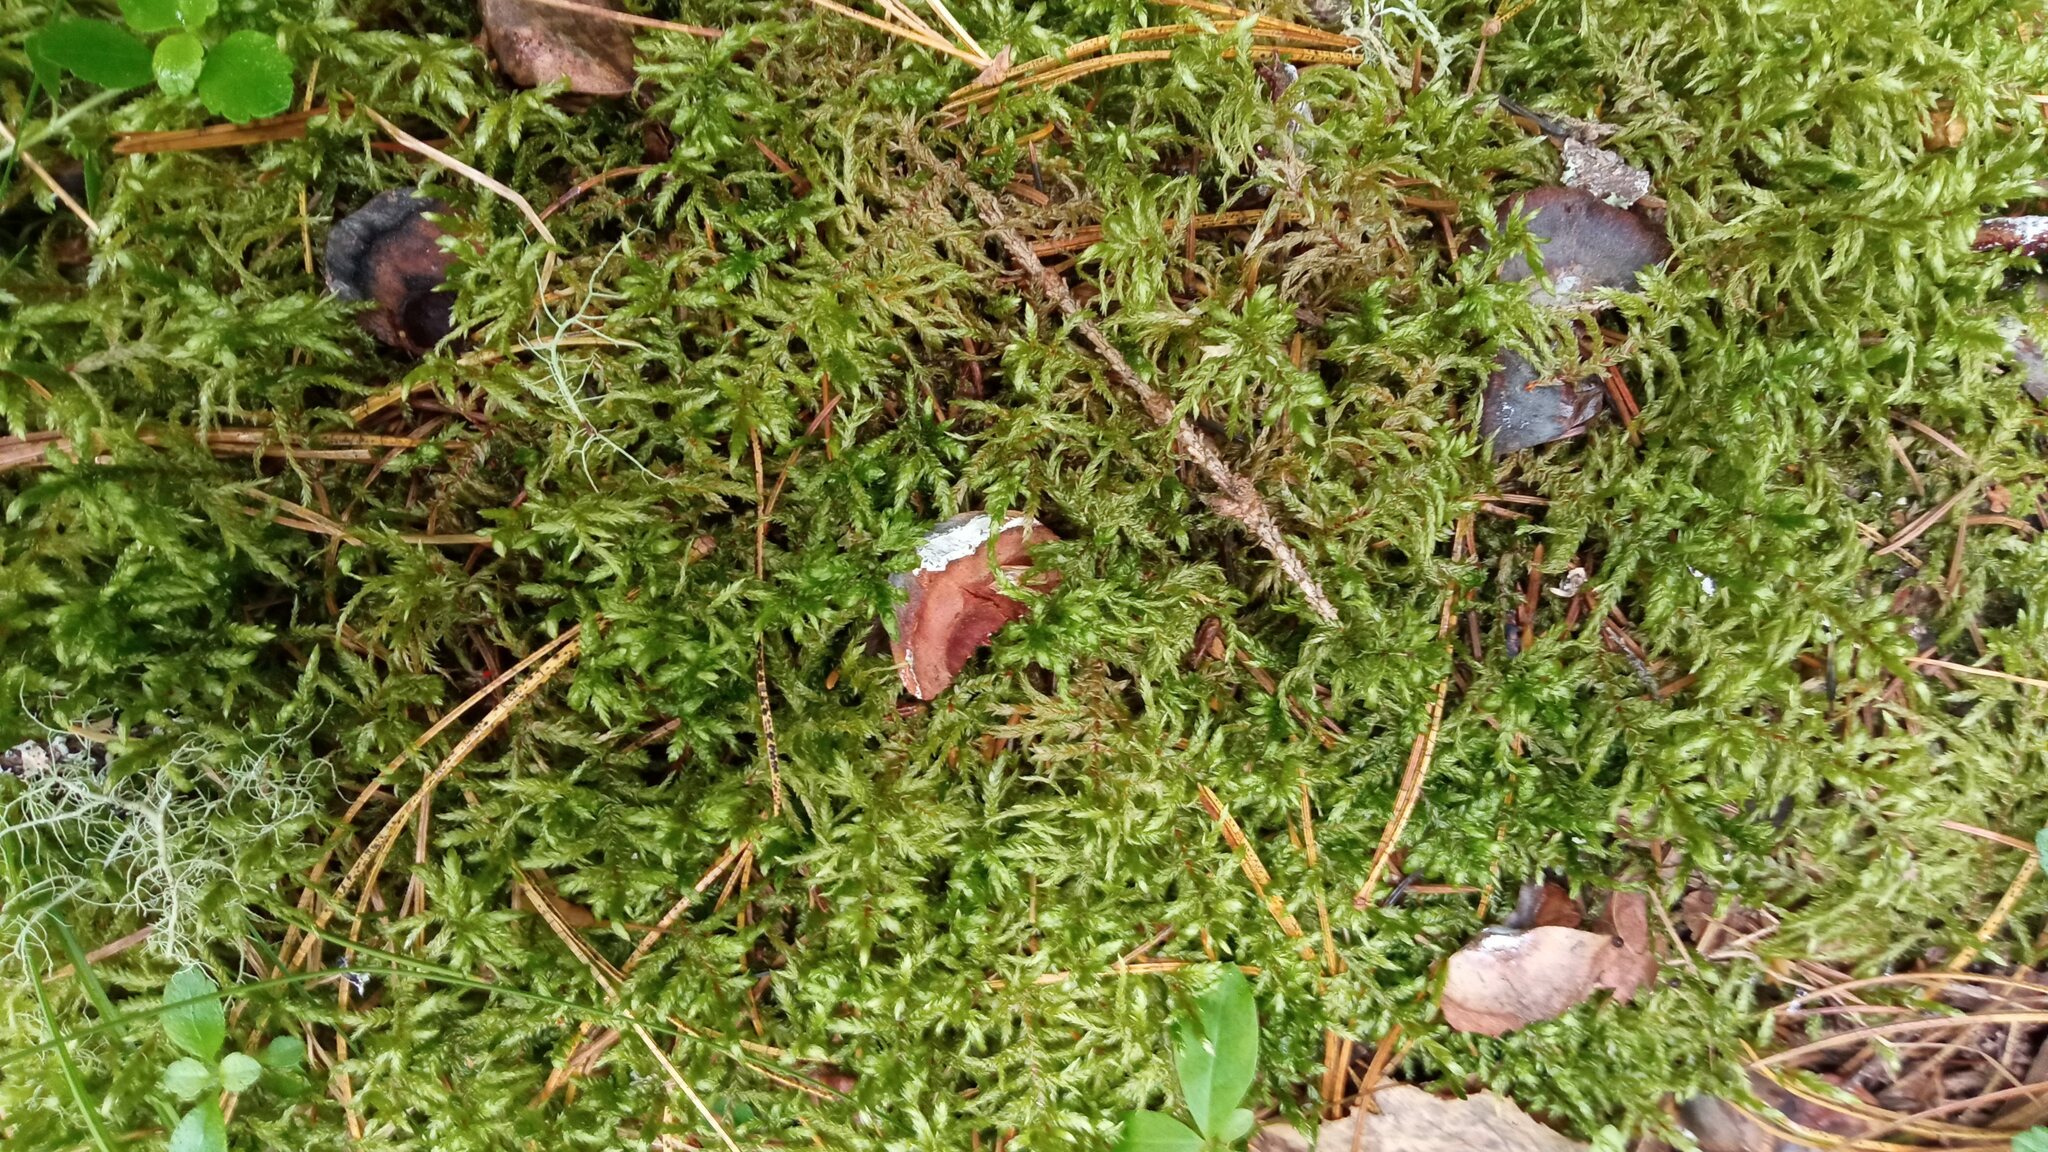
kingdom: Plantae
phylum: Bryophyta
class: Bryopsida
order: Hypnales
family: Hylocomiaceae
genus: Pleurozium
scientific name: Pleurozium schreberi
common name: Red-stemmed feather moss
